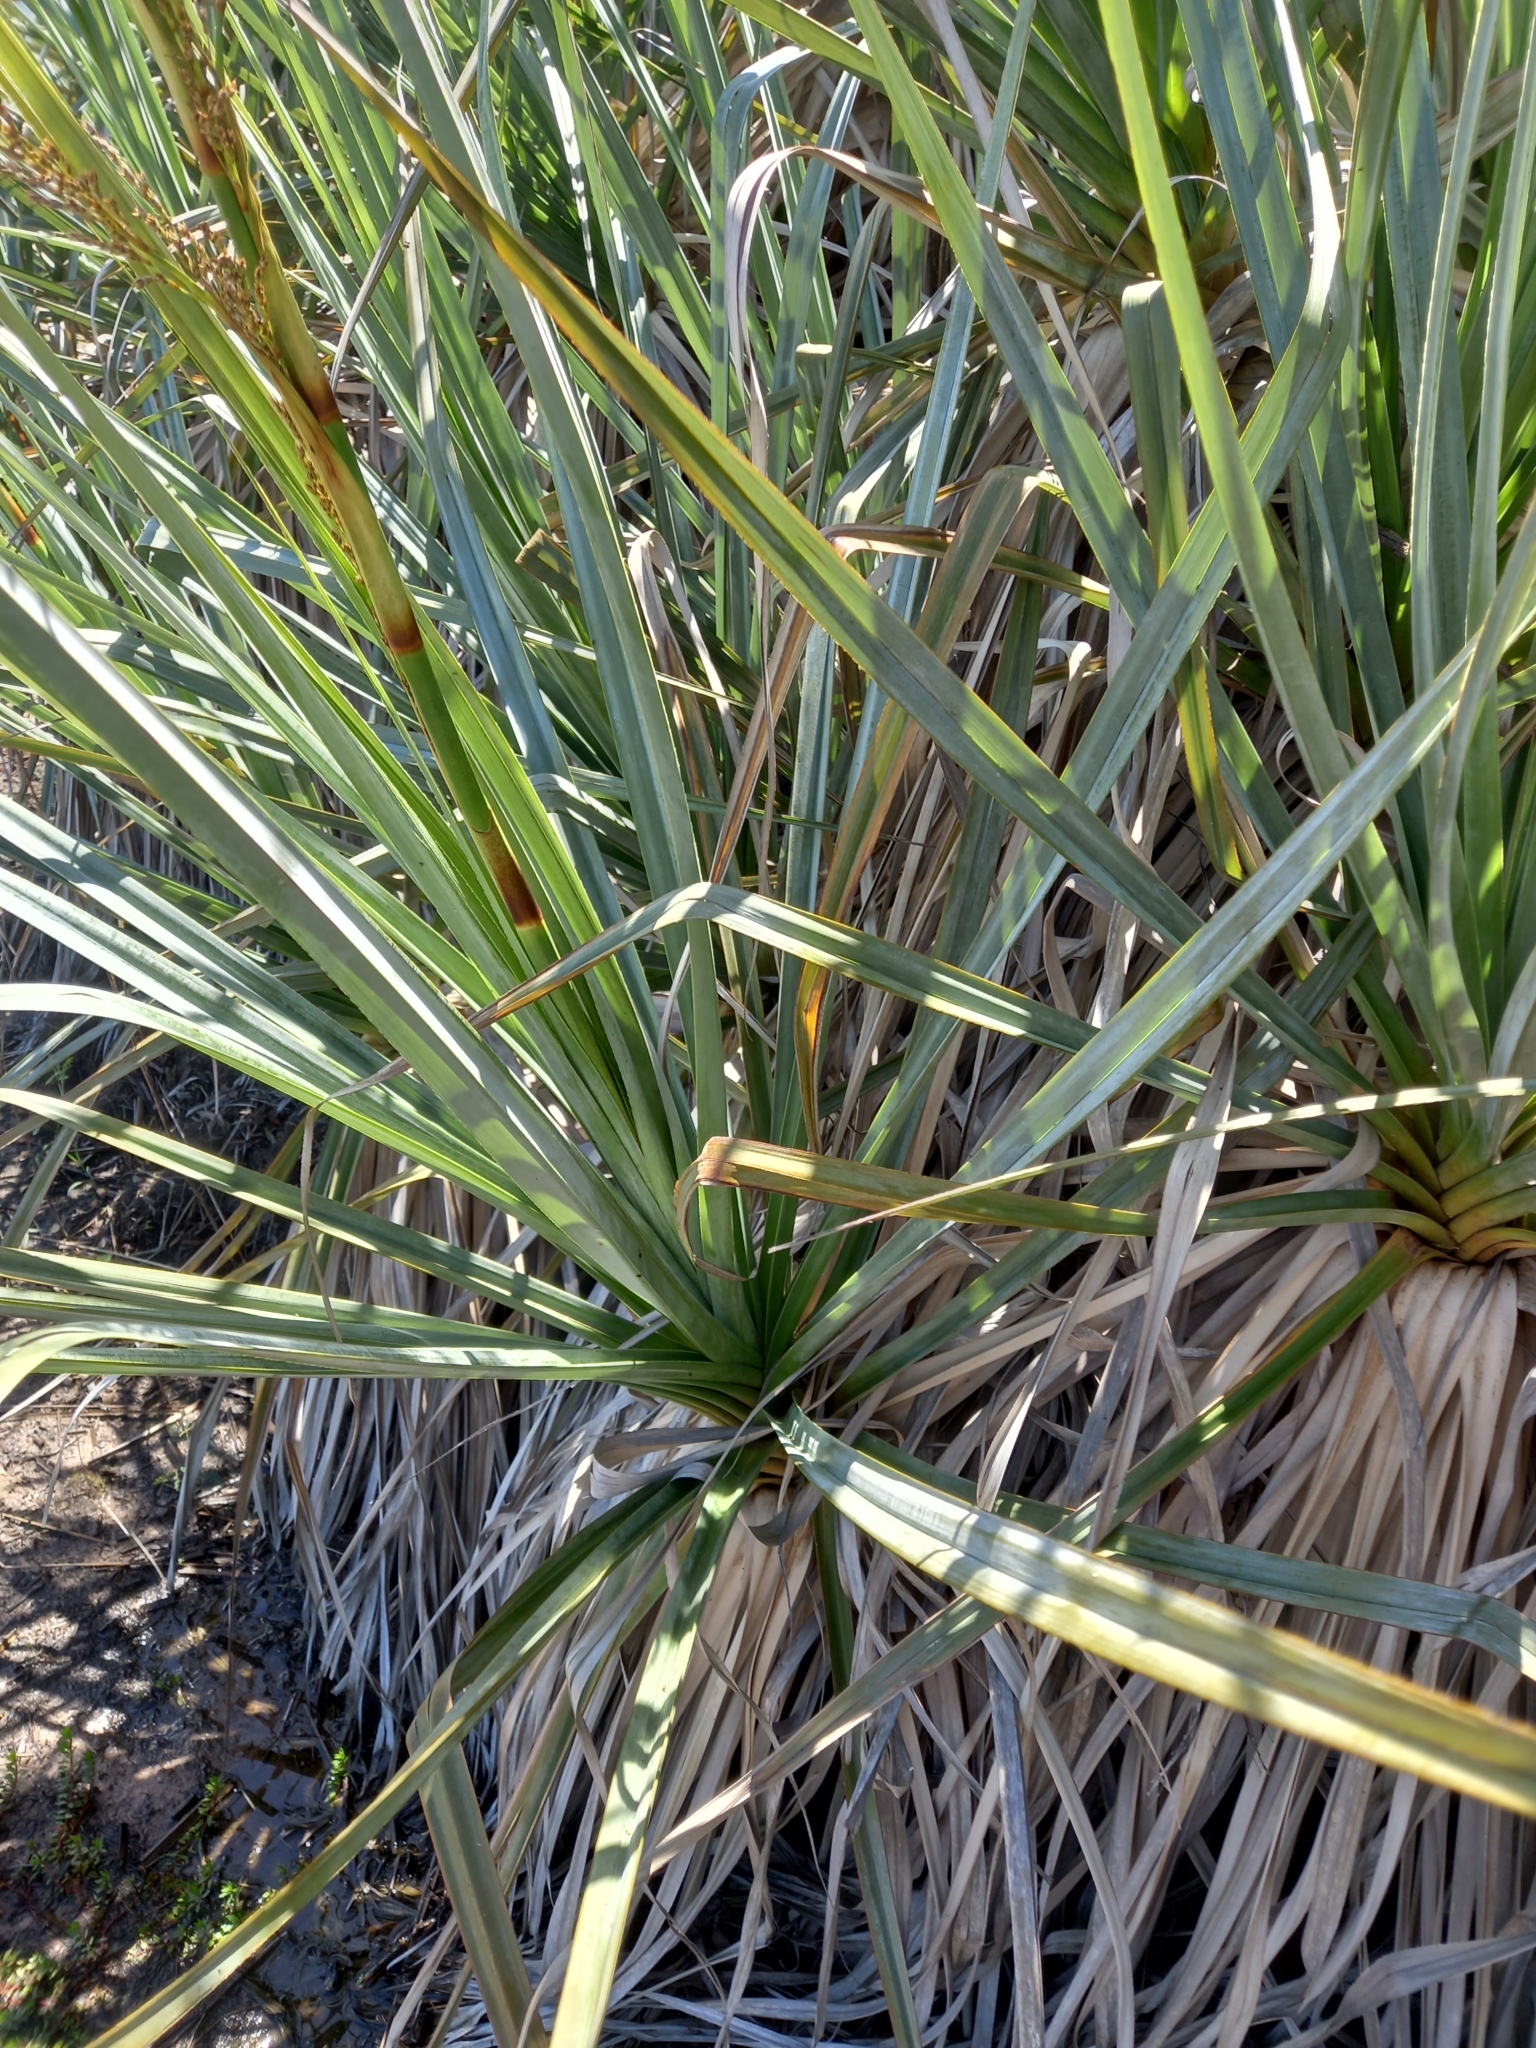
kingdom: Plantae
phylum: Tracheophyta
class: Liliopsida
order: Poales
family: Thurniaceae
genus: Prionium
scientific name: Prionium serratum
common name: Palmiet
